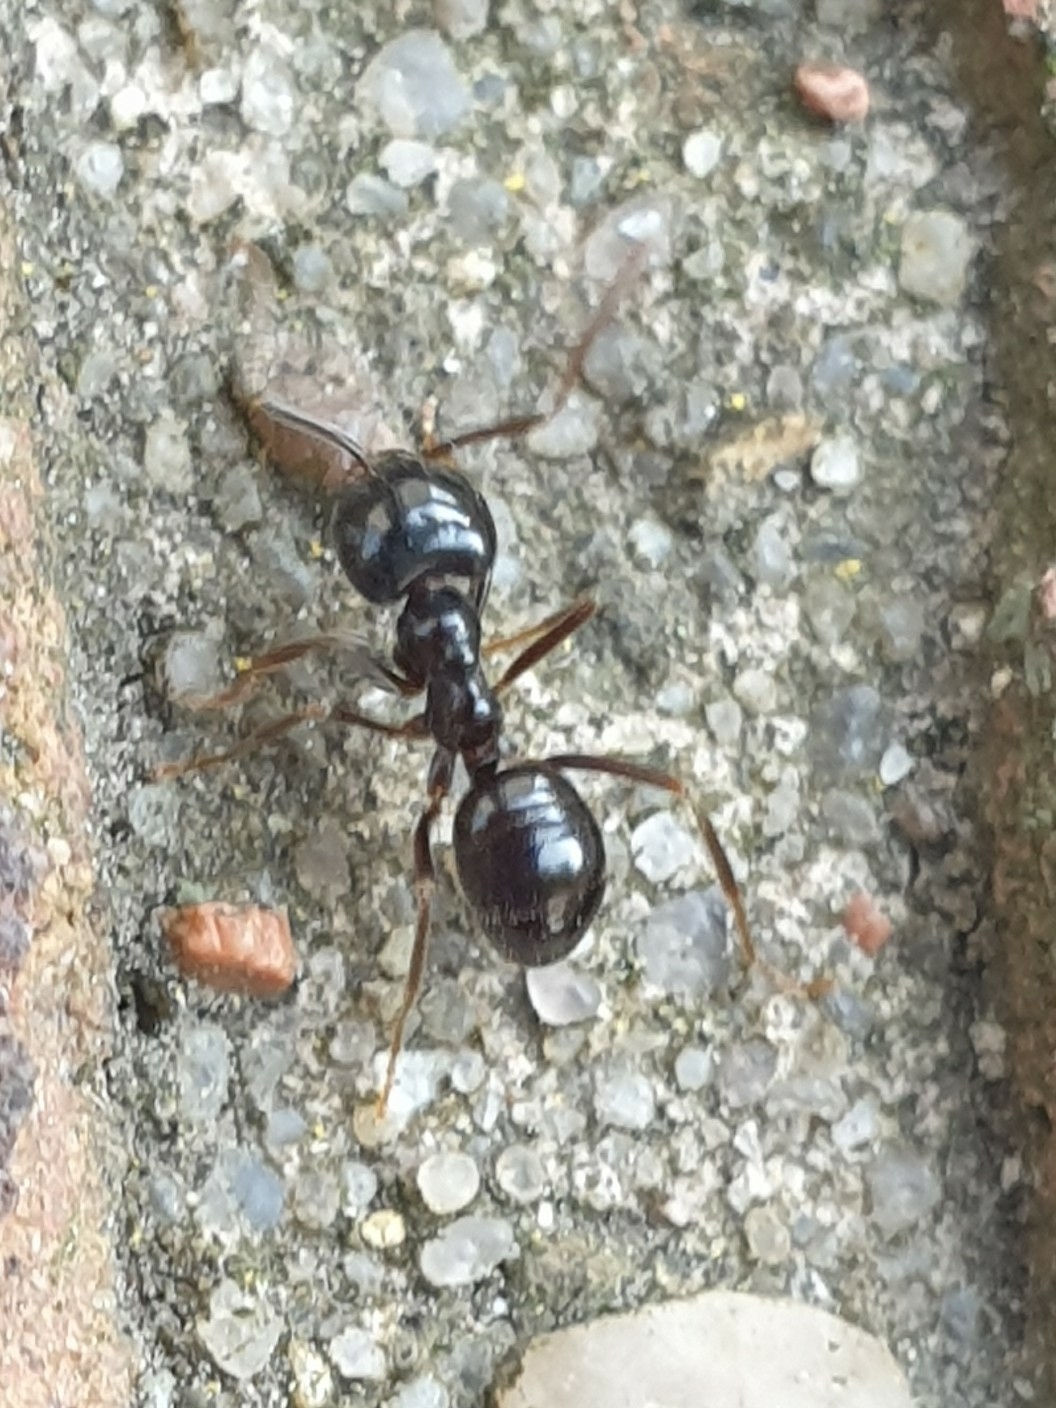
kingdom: Animalia
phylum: Arthropoda
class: Insecta
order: Hymenoptera
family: Formicidae
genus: Lasius
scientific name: Lasius fuliginosus
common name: Jet ant
